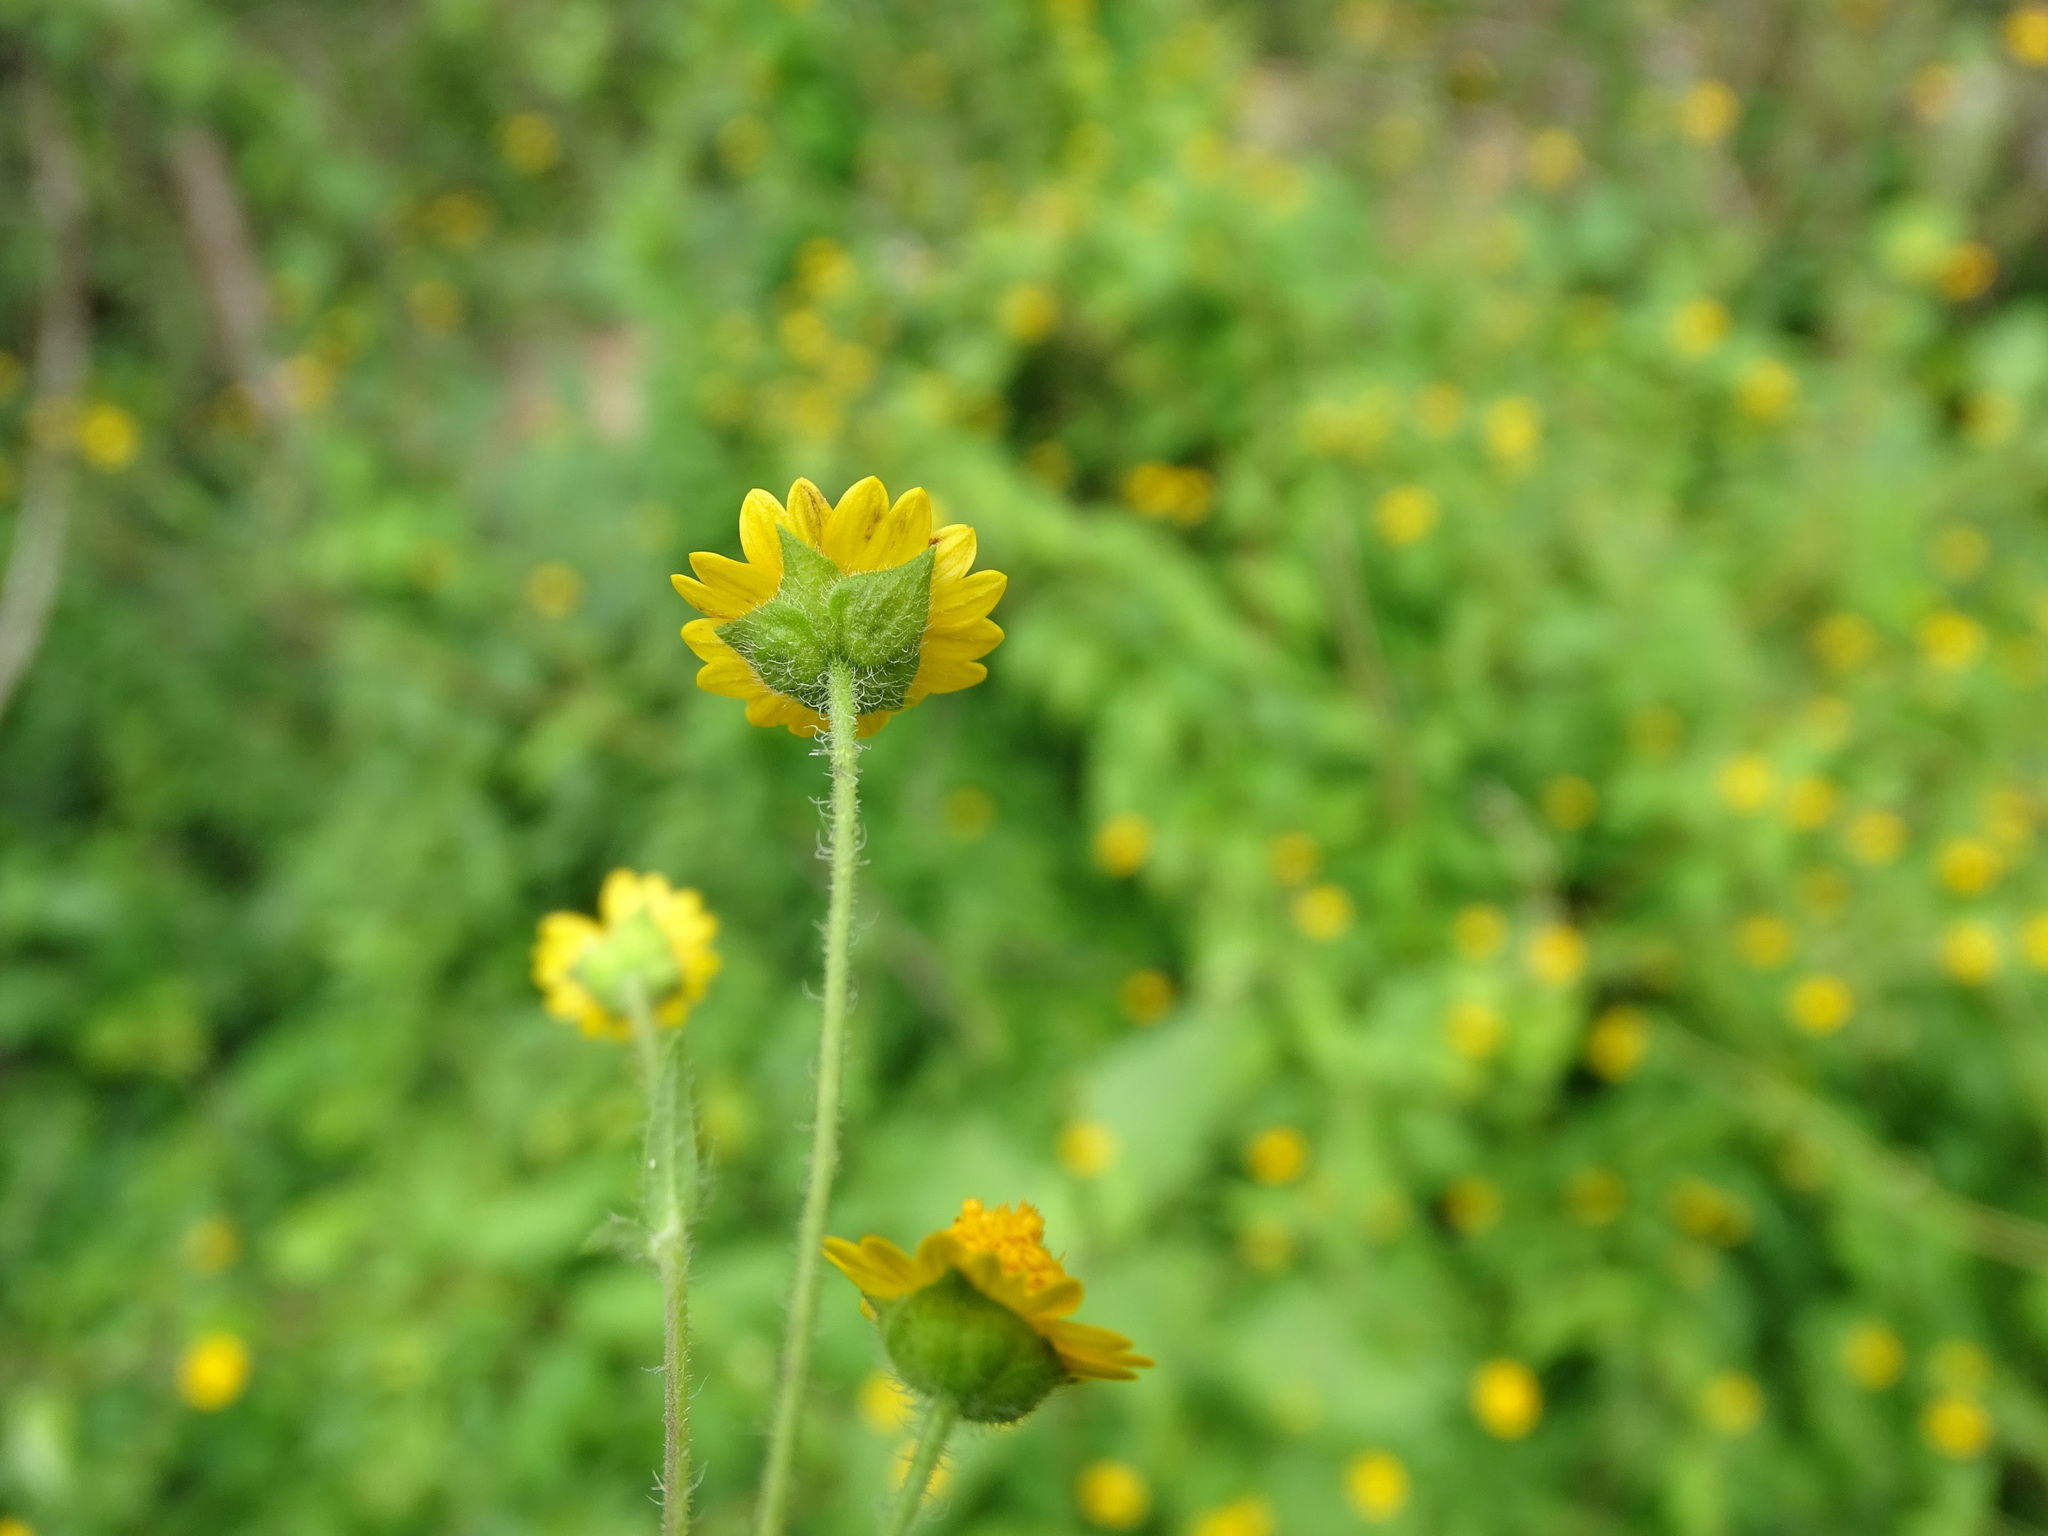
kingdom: Plantae
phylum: Tracheophyta
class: Magnoliopsida
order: Asterales
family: Asteraceae
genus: Melampodium
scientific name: Melampodium gracile
